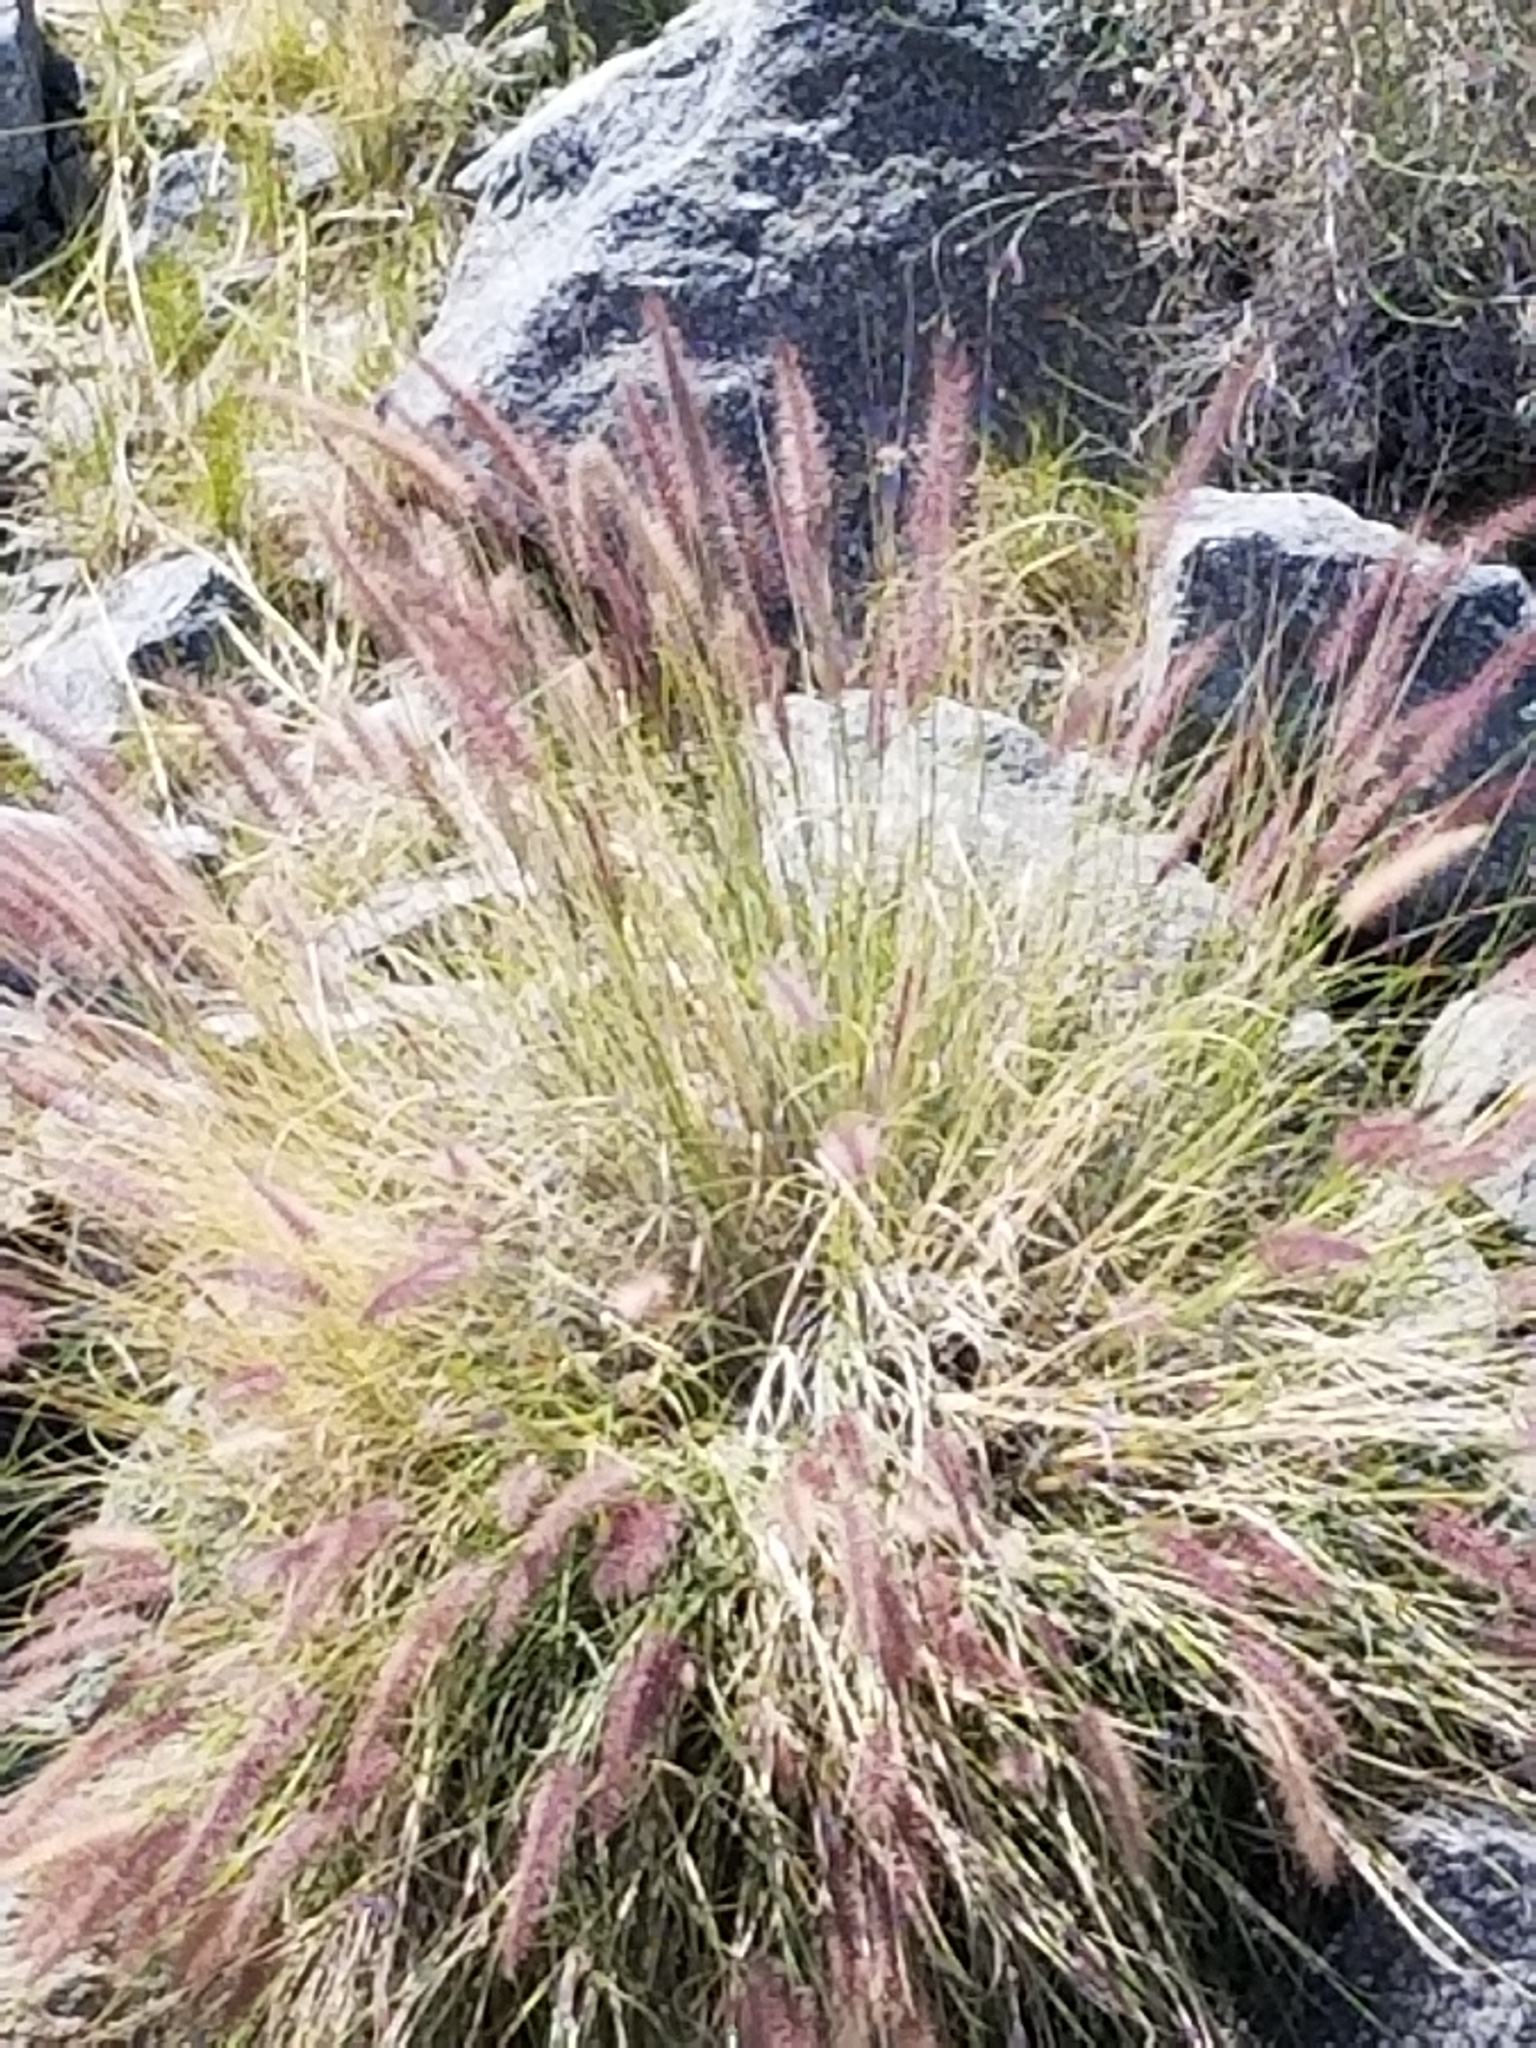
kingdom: Plantae
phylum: Tracheophyta
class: Liliopsida
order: Poales
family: Poaceae
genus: Cenchrus
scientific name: Cenchrus setaceus
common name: Crimson fountaingrass
